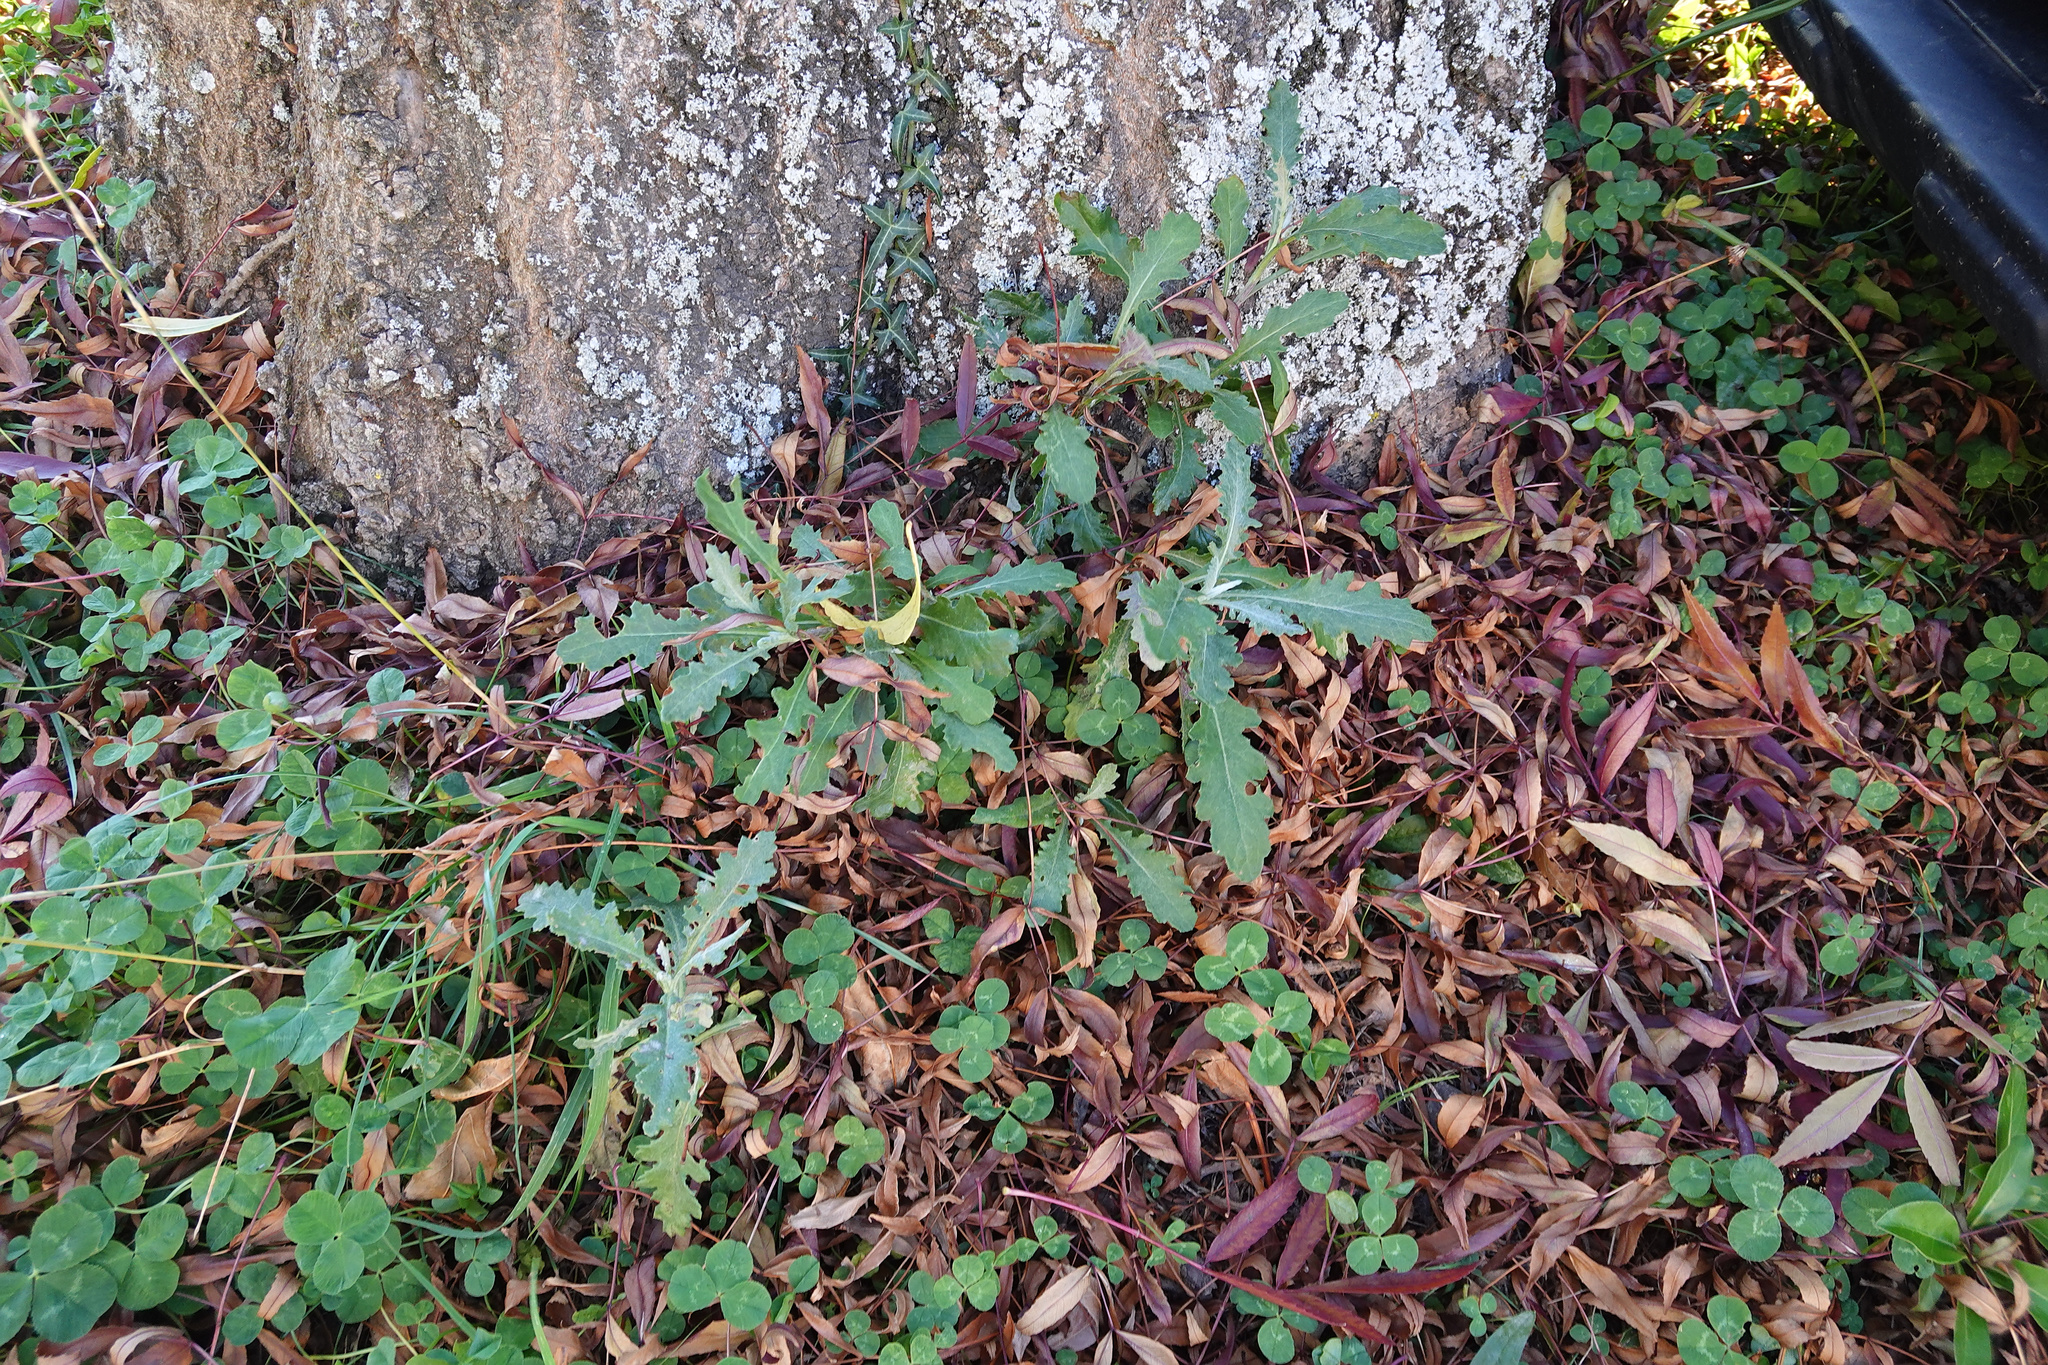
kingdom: Plantae
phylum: Tracheophyta
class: Magnoliopsida
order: Asterales
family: Asteraceae
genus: Senecio
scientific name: Senecio glomeratus
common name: Cutleaf burnweed
